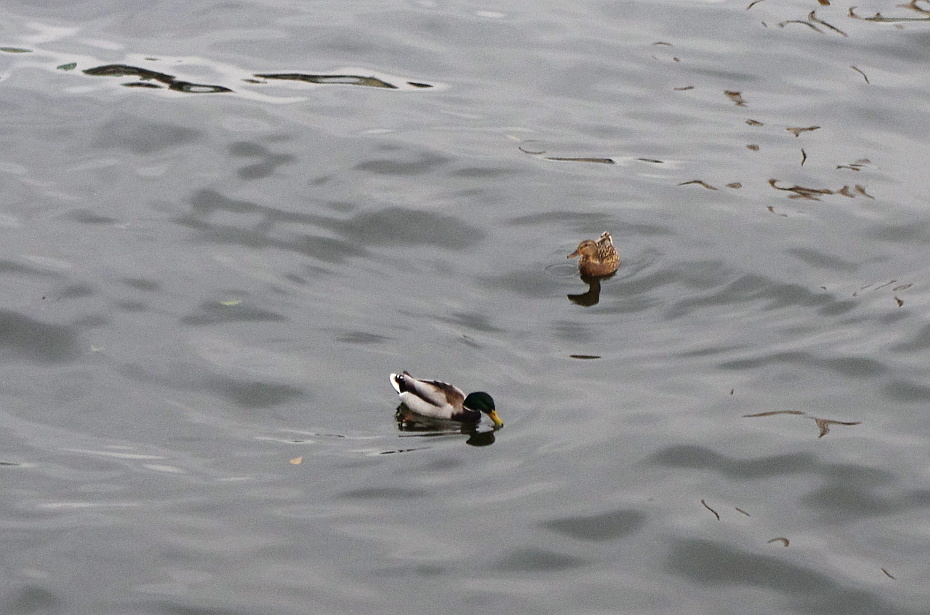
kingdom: Animalia
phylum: Chordata
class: Aves
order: Anseriformes
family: Anatidae
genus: Anas
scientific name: Anas platyrhynchos
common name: Mallard
